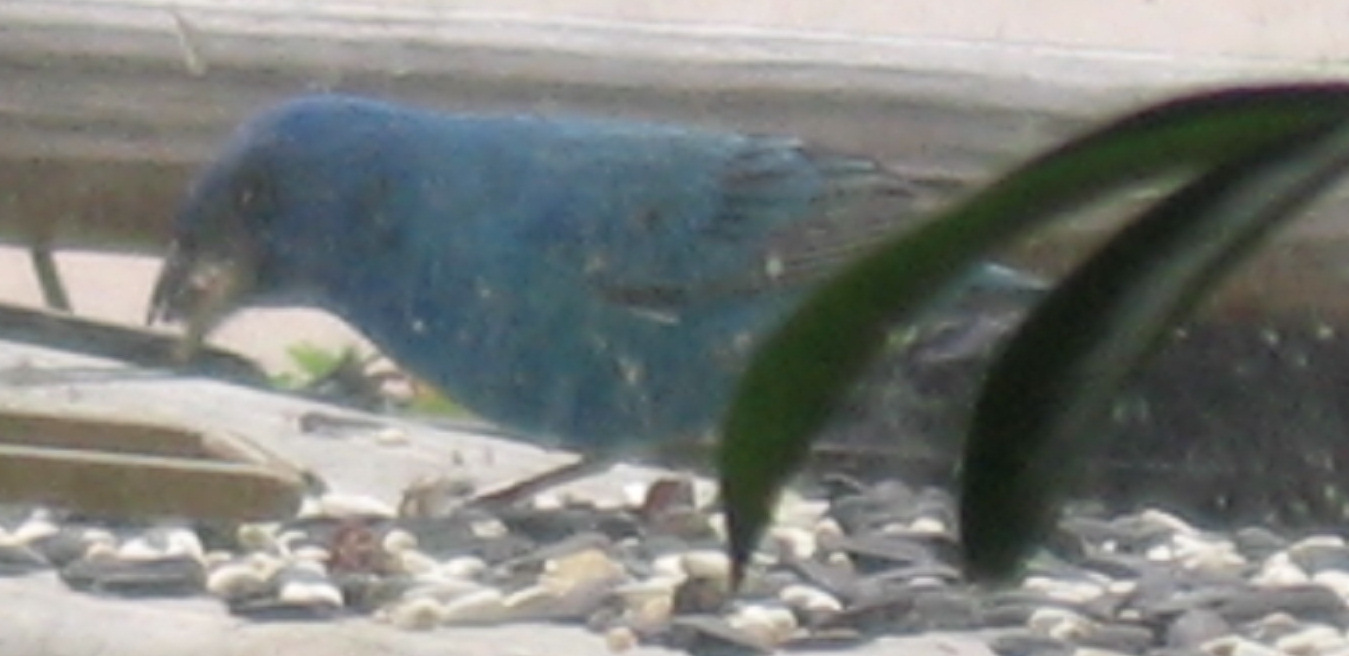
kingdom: Animalia
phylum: Chordata
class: Aves
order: Passeriformes
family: Cardinalidae
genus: Passerina
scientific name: Passerina cyanea
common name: Indigo bunting
